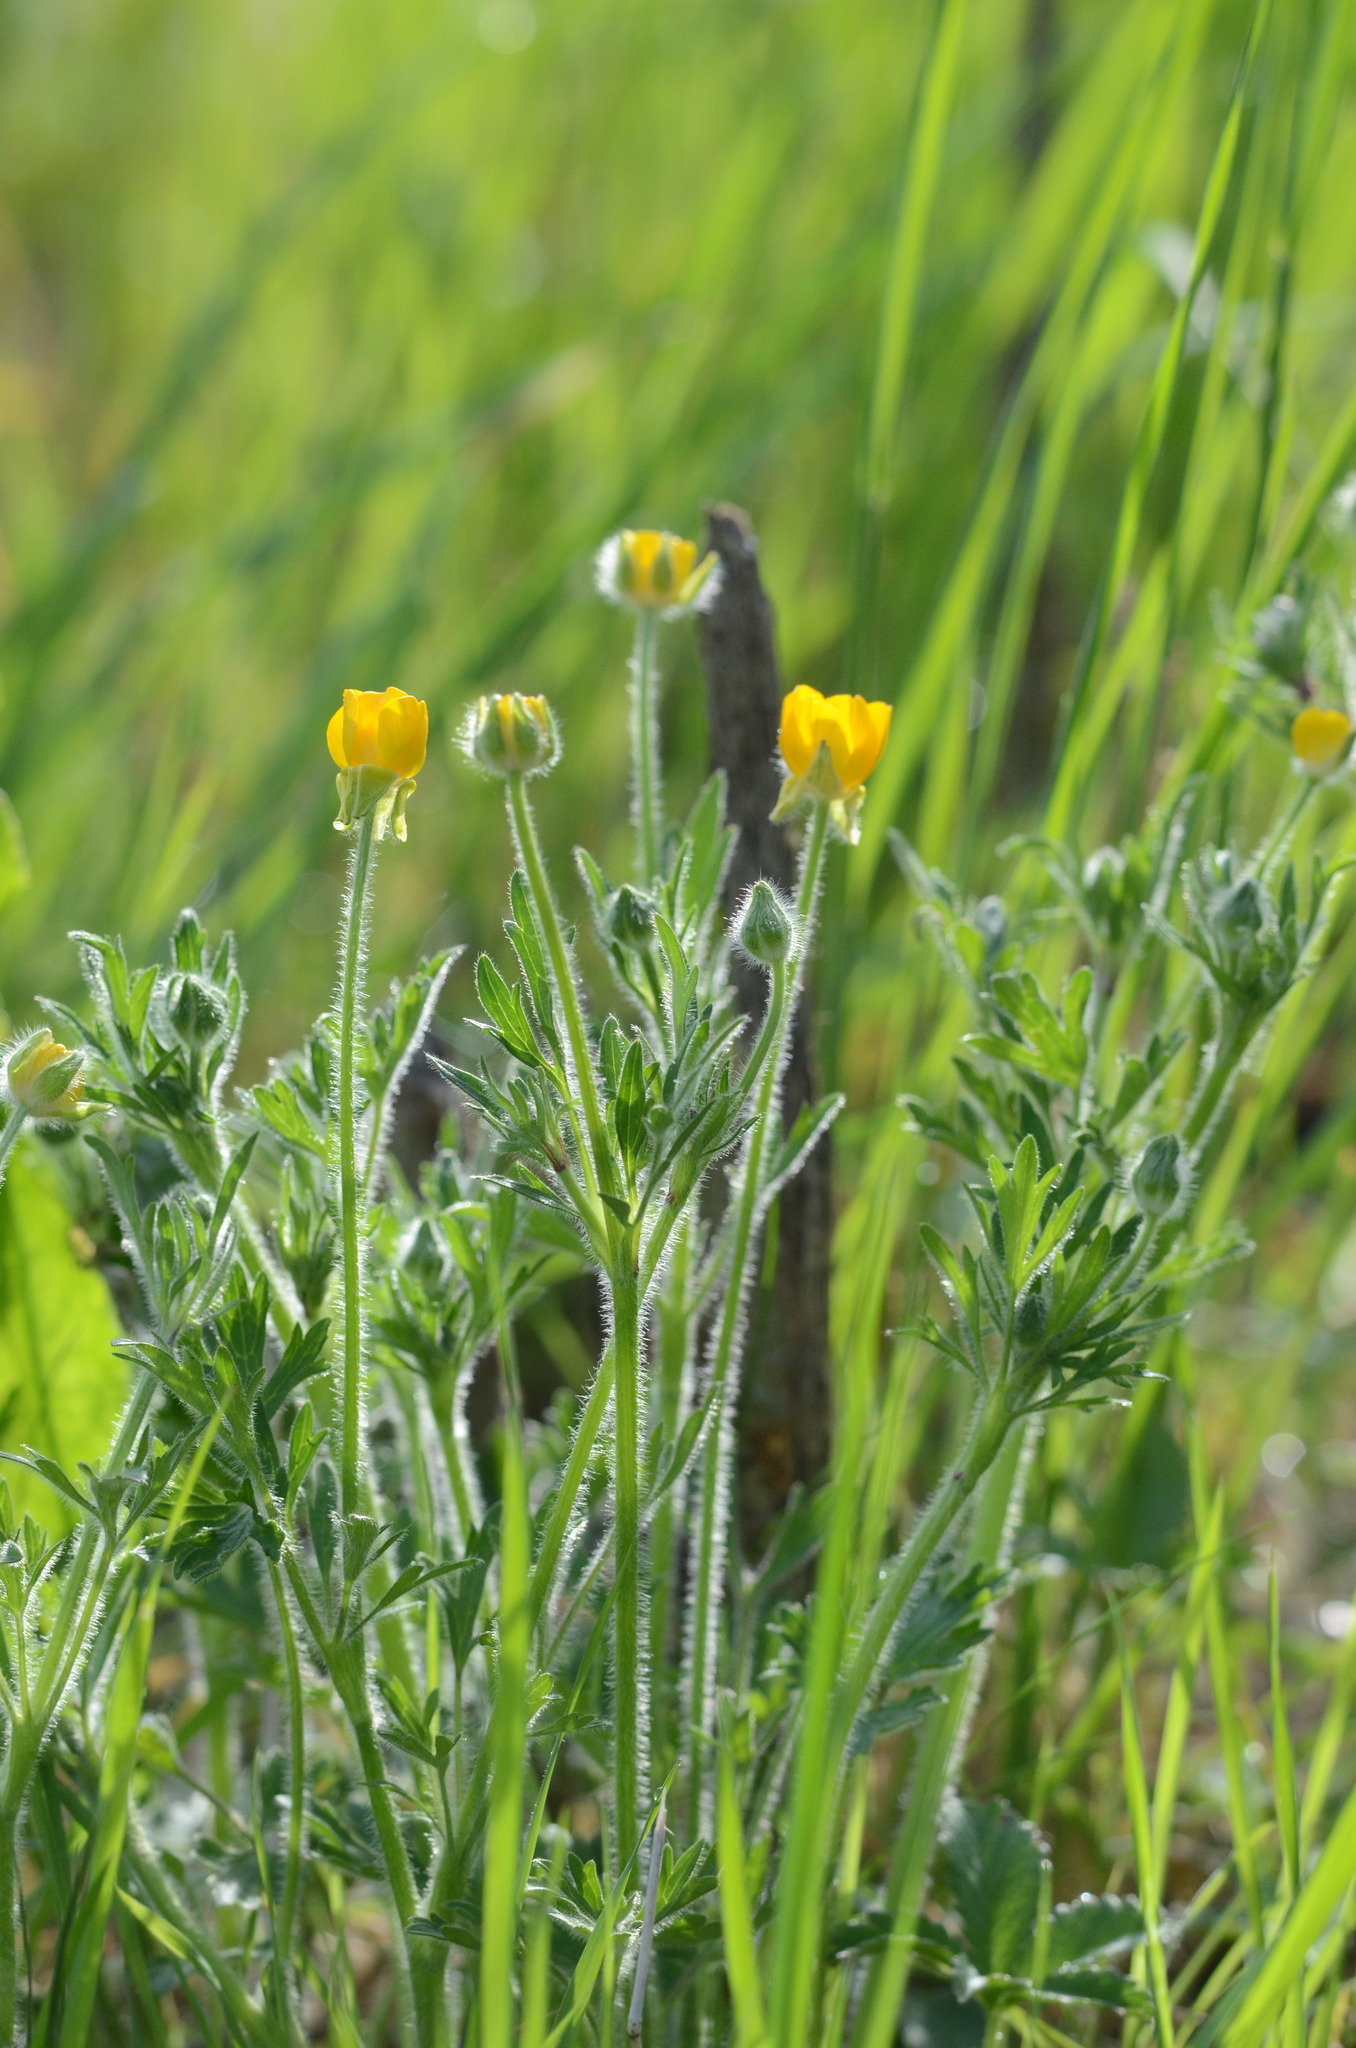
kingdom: Plantae
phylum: Tracheophyta
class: Magnoliopsida
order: Ranunculales
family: Ranunculaceae
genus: Ranunculus
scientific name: Ranunculus bulbosus
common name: Bulbous buttercup
